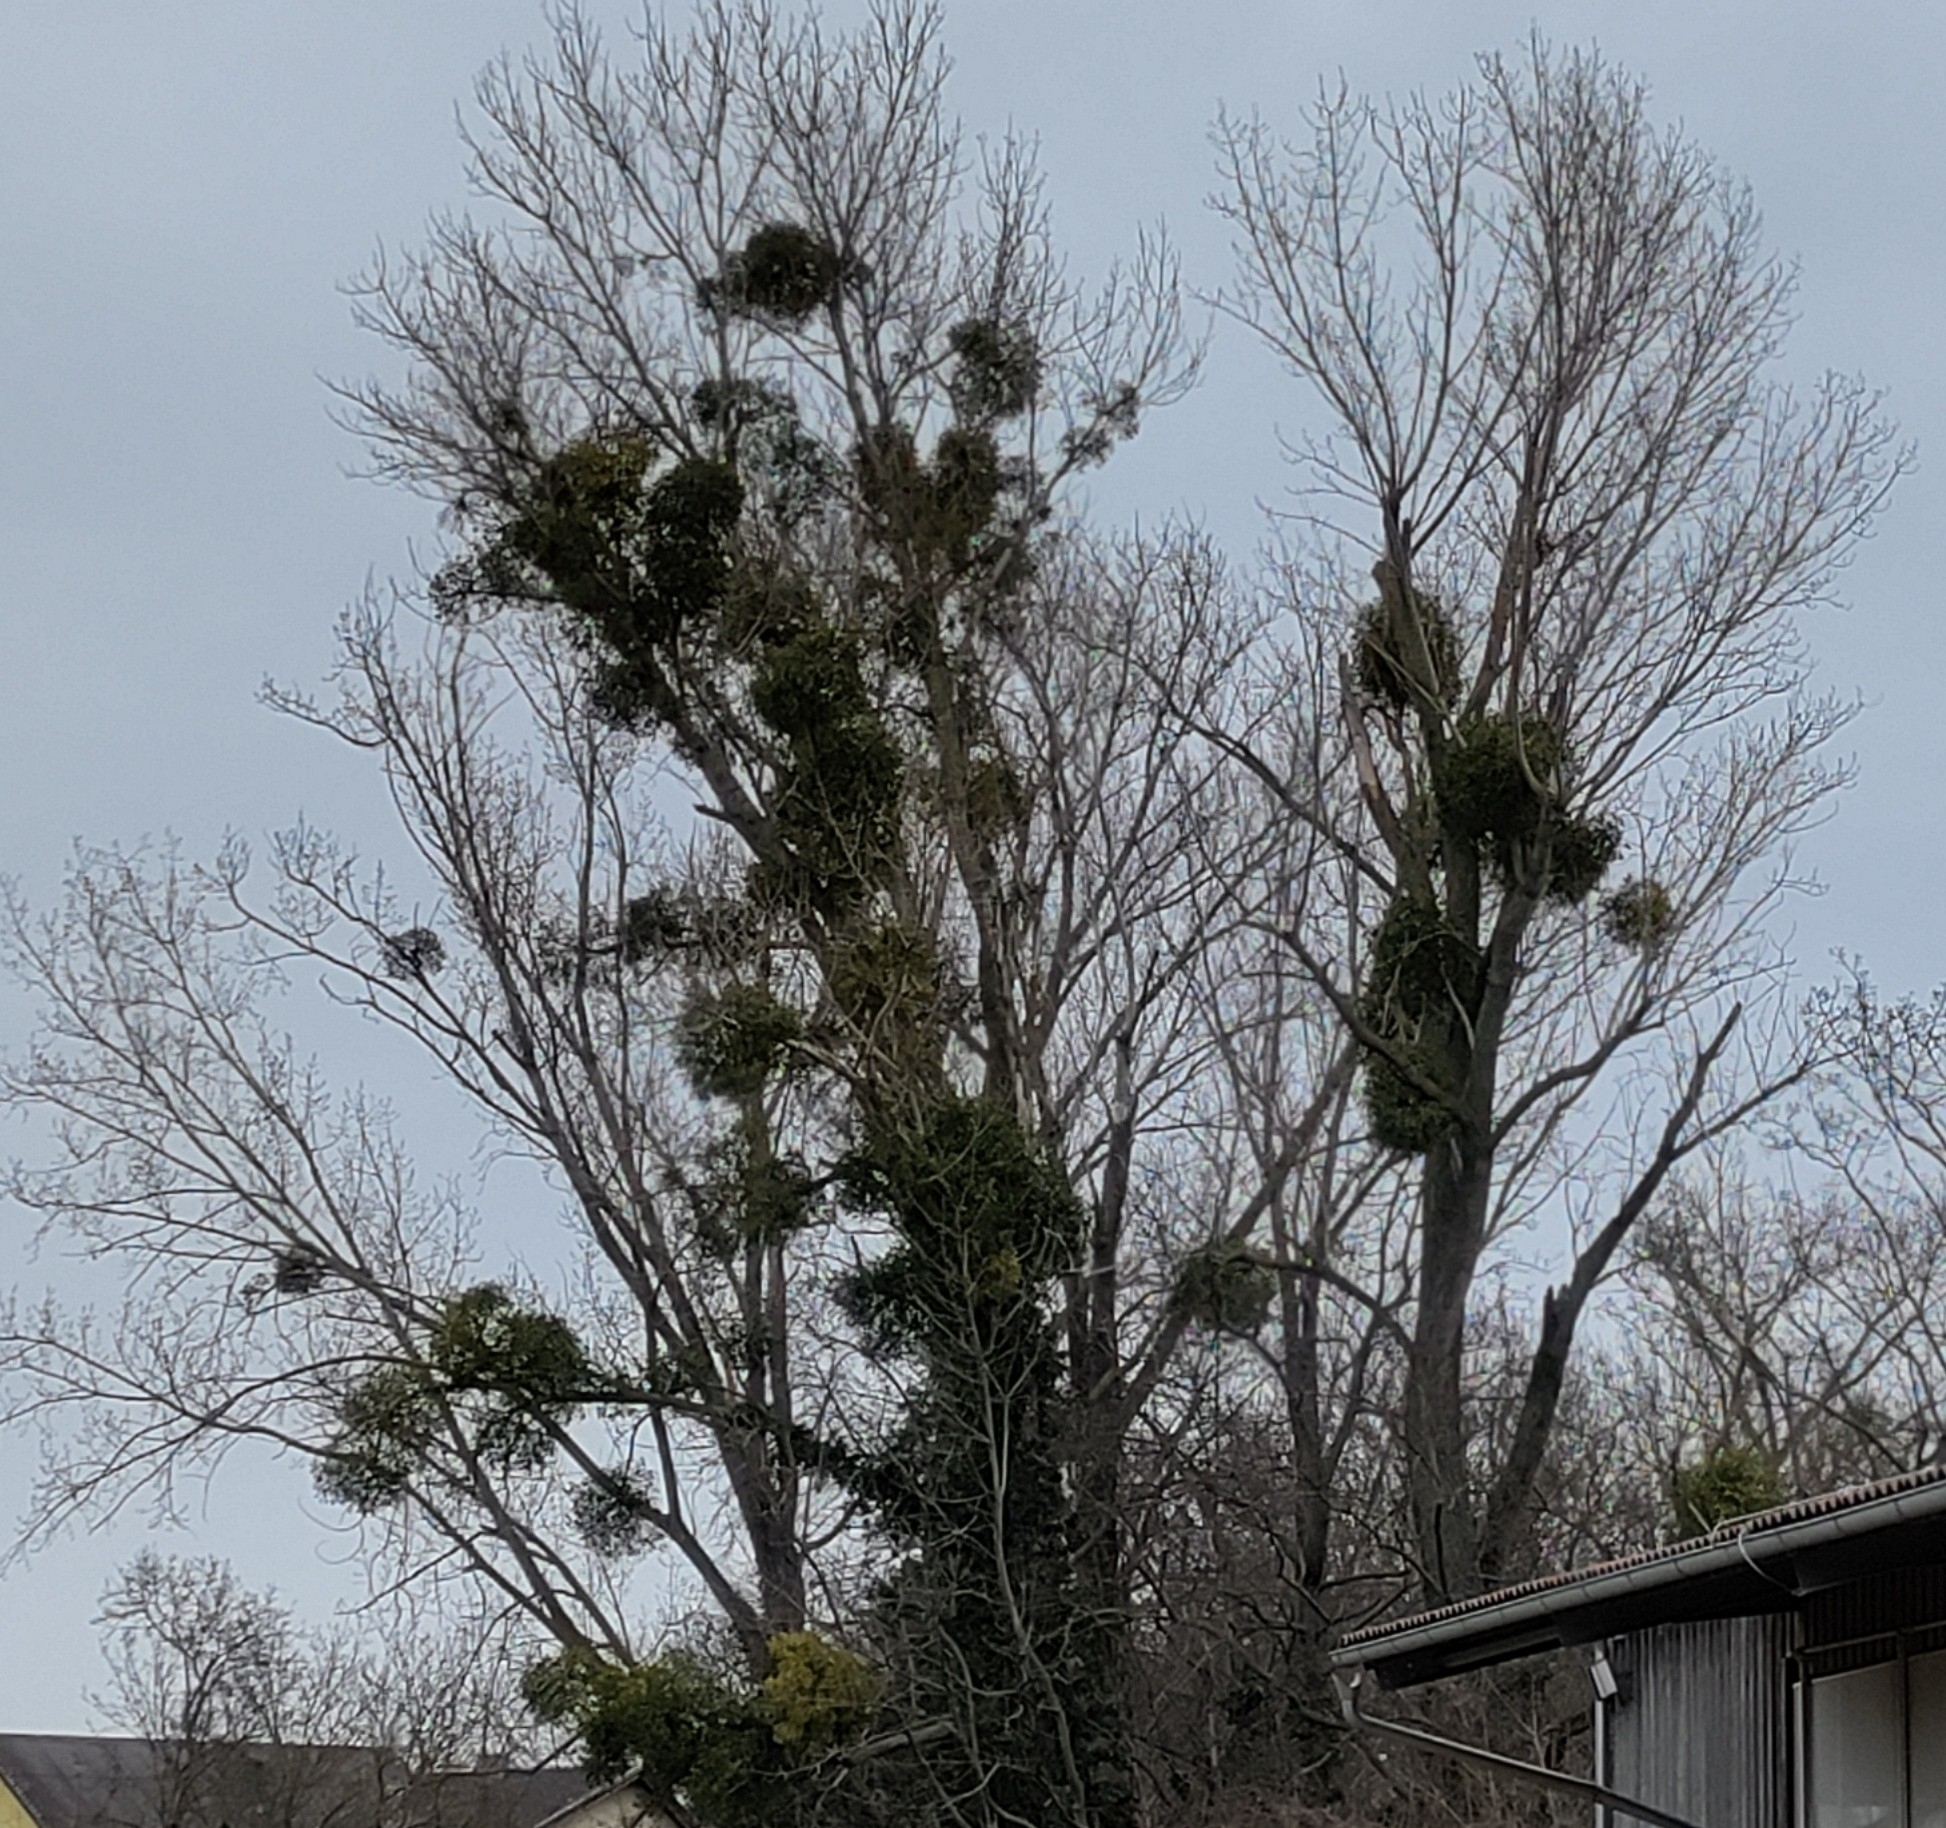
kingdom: Plantae
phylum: Tracheophyta
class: Magnoliopsida
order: Santalales
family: Viscaceae
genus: Viscum
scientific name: Viscum album
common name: Mistletoe
